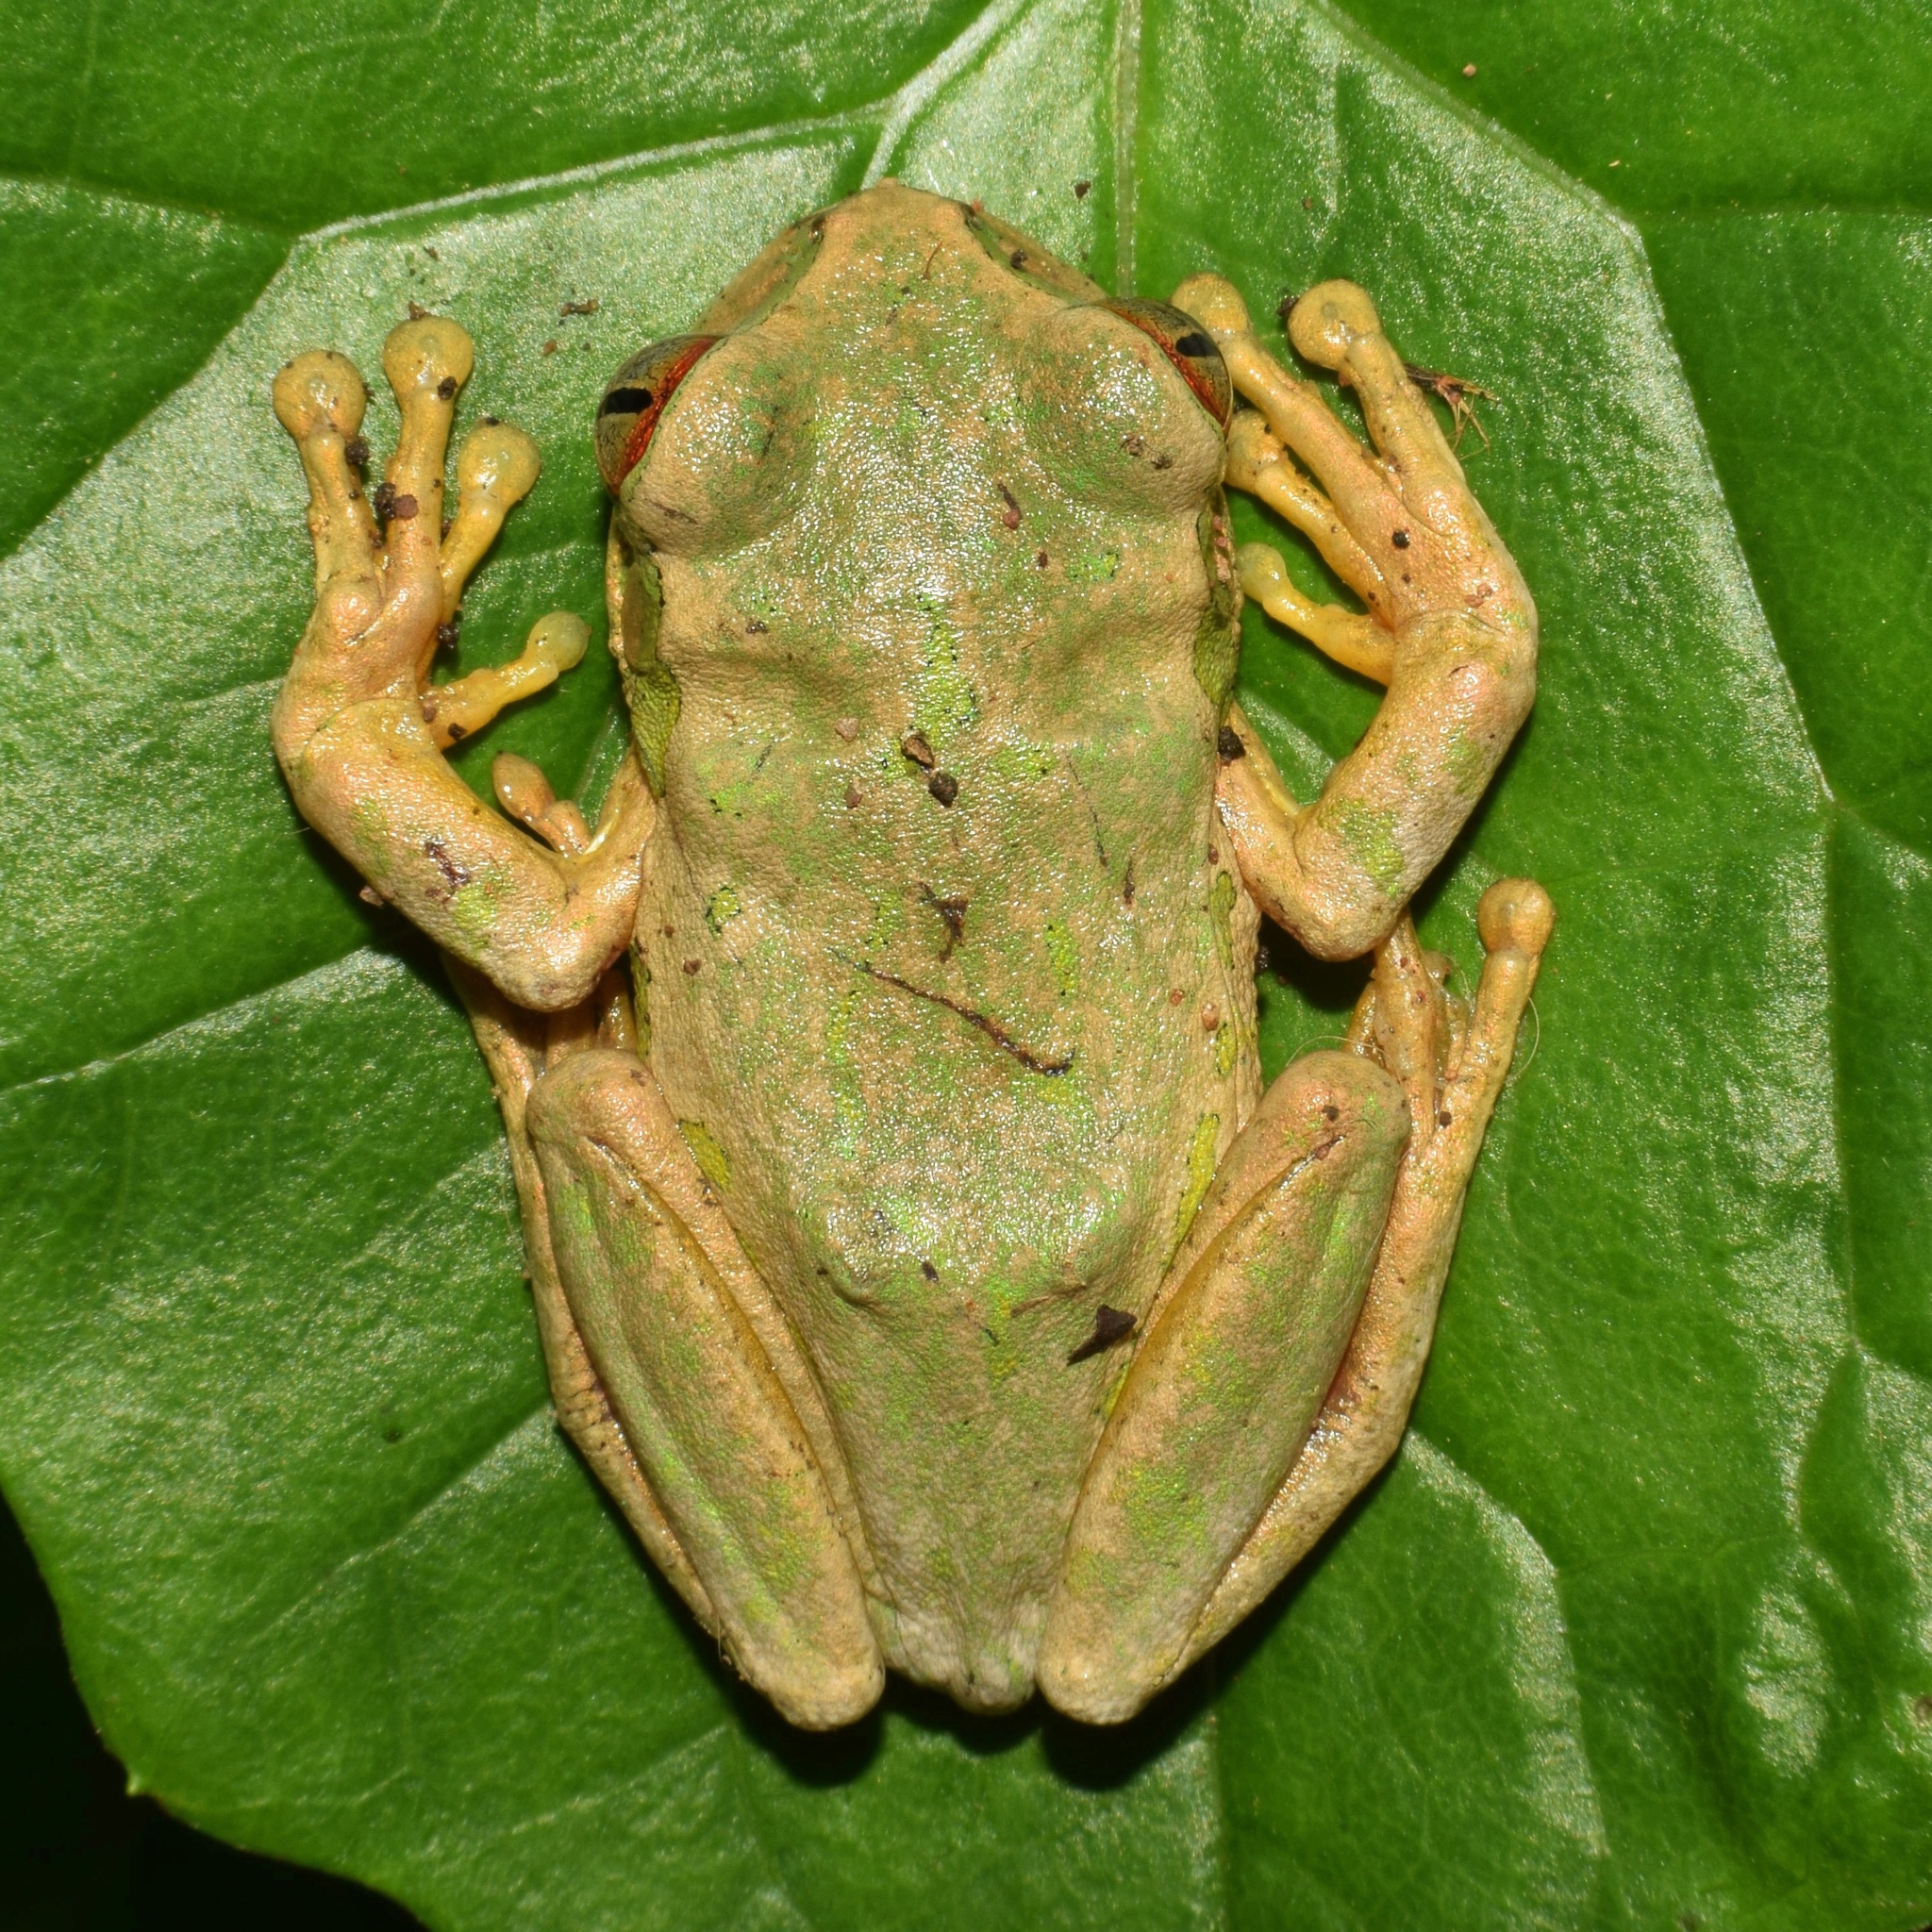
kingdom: Animalia
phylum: Chordata
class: Amphibia
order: Anura
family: Arthroleptidae
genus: Leptopelis
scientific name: Leptopelis natalensis
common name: Natal tree frog
